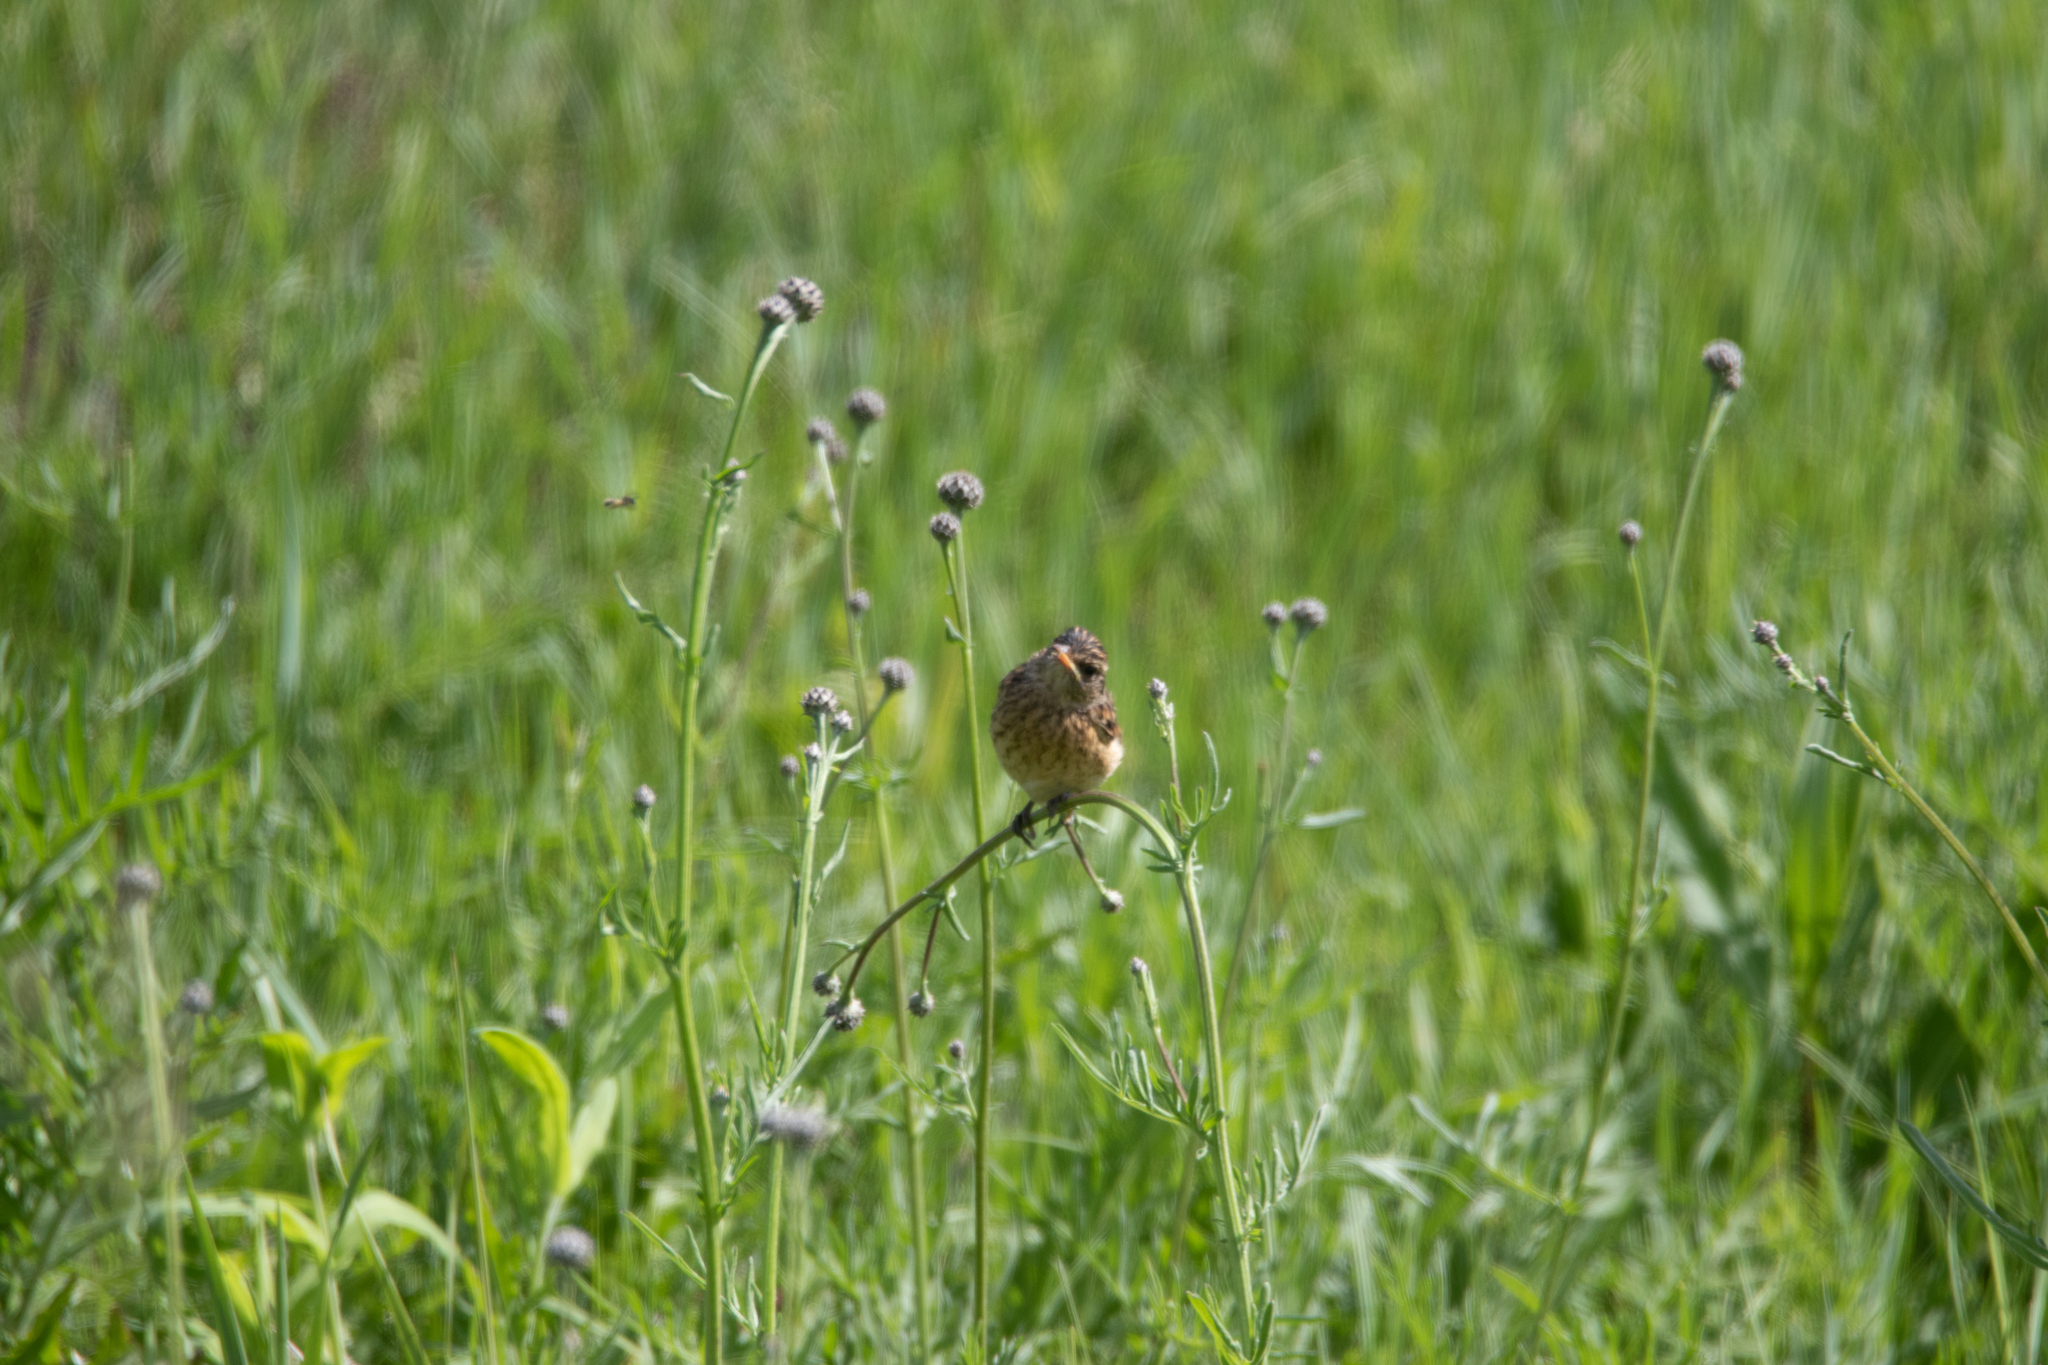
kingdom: Animalia
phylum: Chordata
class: Aves
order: Passeriformes
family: Muscicapidae
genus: Saxicola
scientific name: Saxicola maurus
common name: Siberian stonechat
